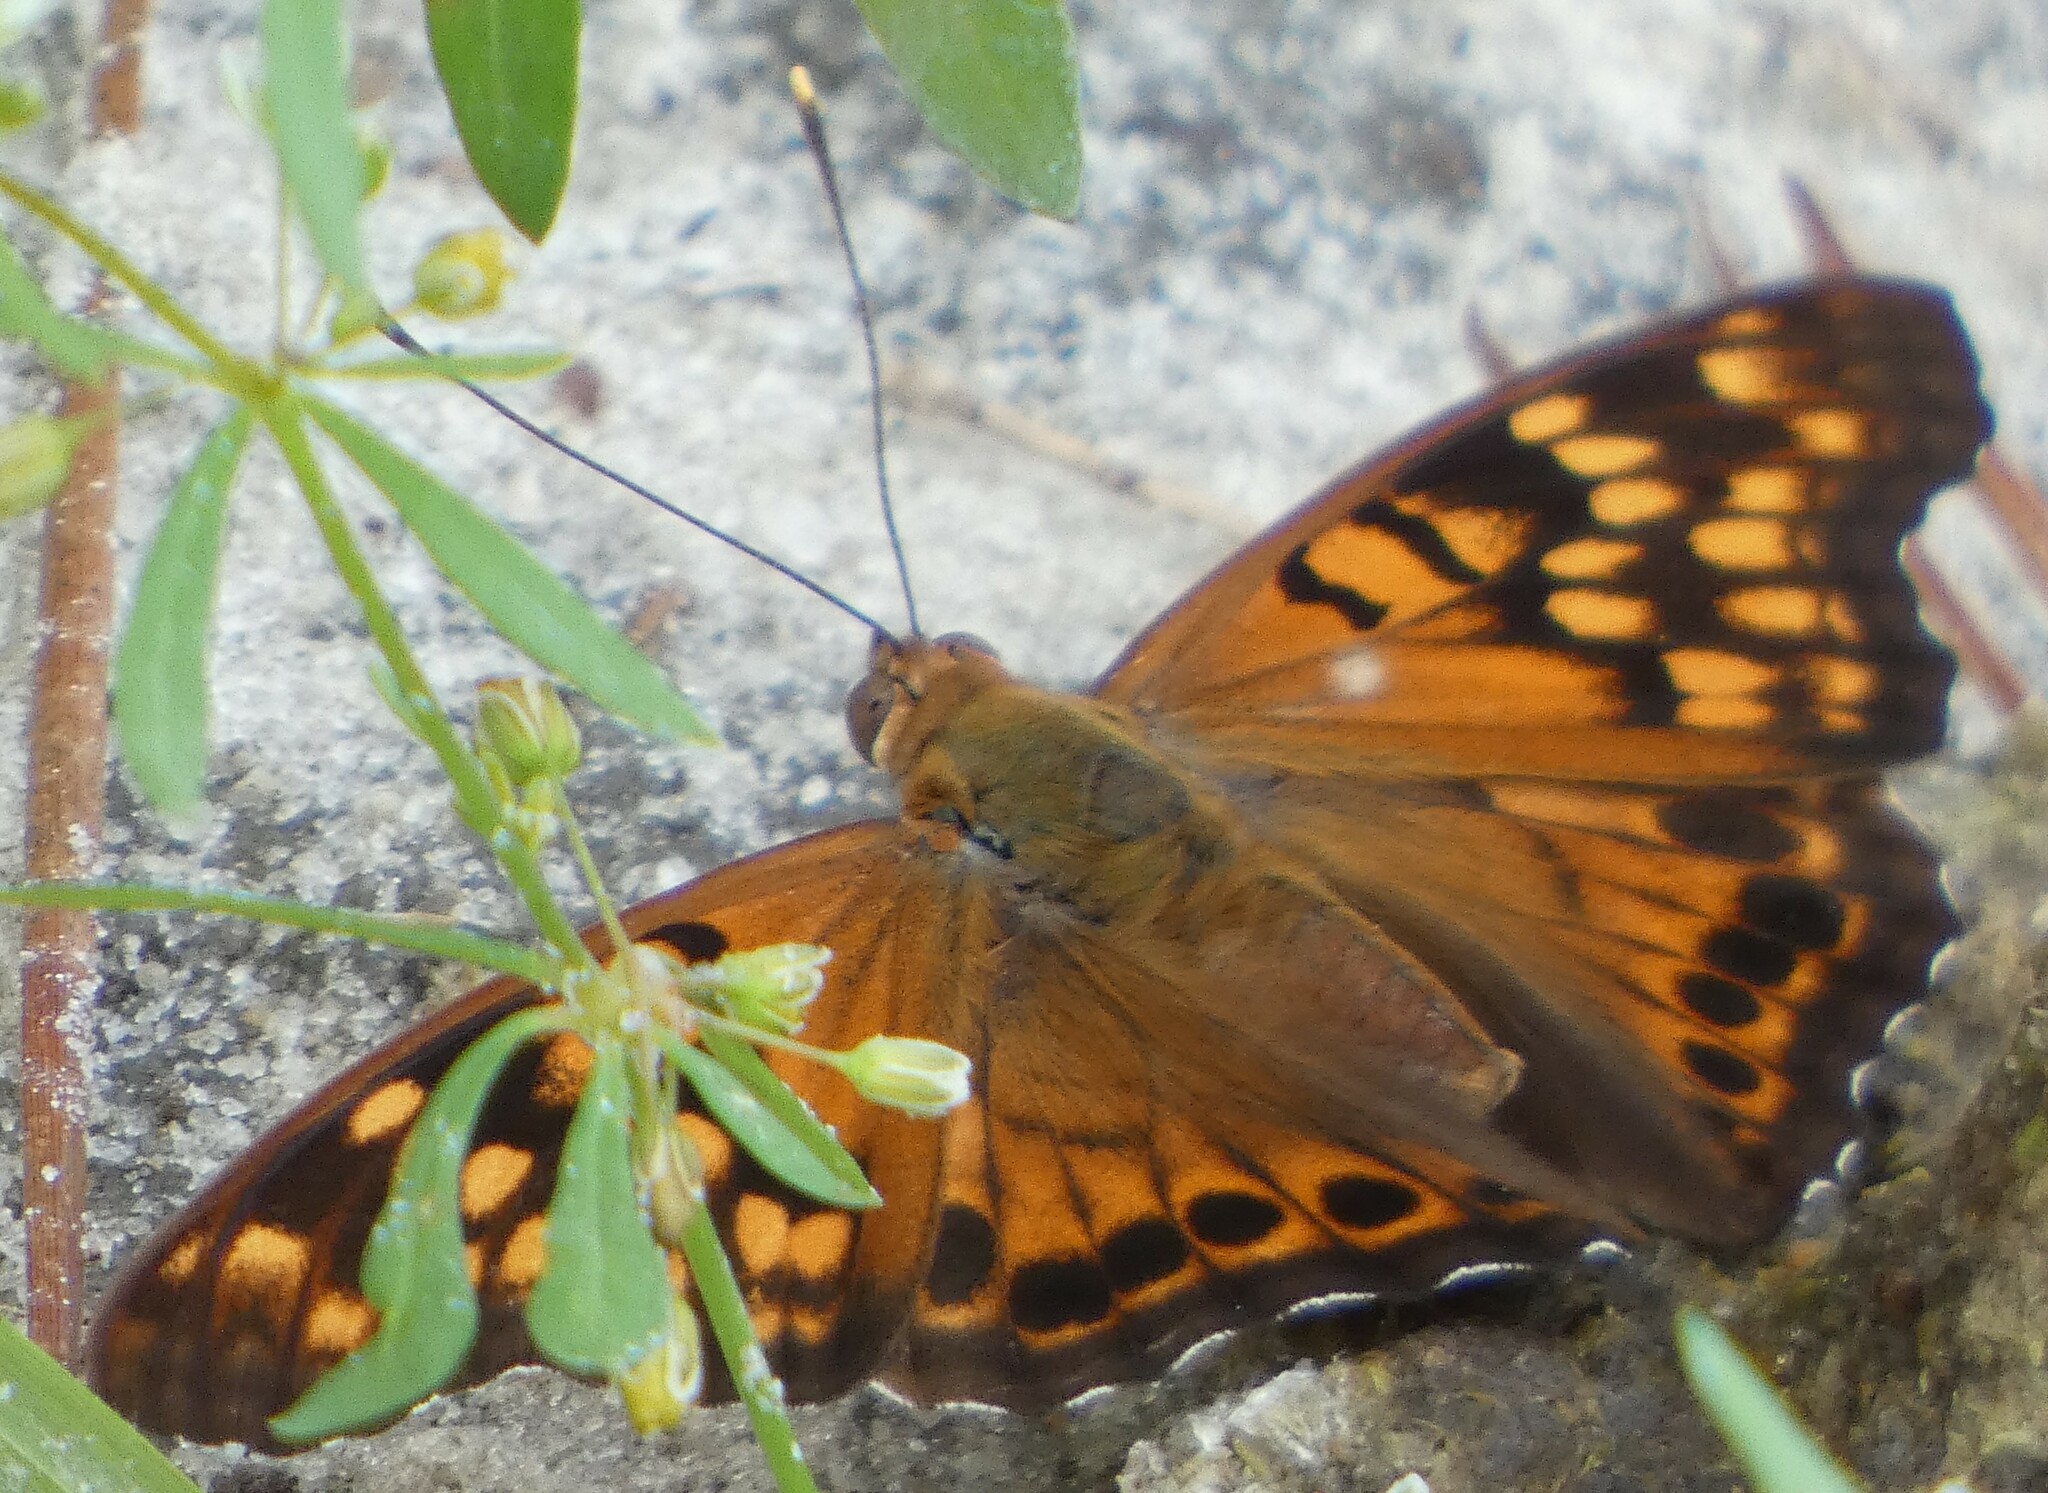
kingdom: Animalia
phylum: Arthropoda
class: Insecta
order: Lepidoptera
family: Nymphalidae
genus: Asterocampa
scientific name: Asterocampa clyton
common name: Tawny emperor
